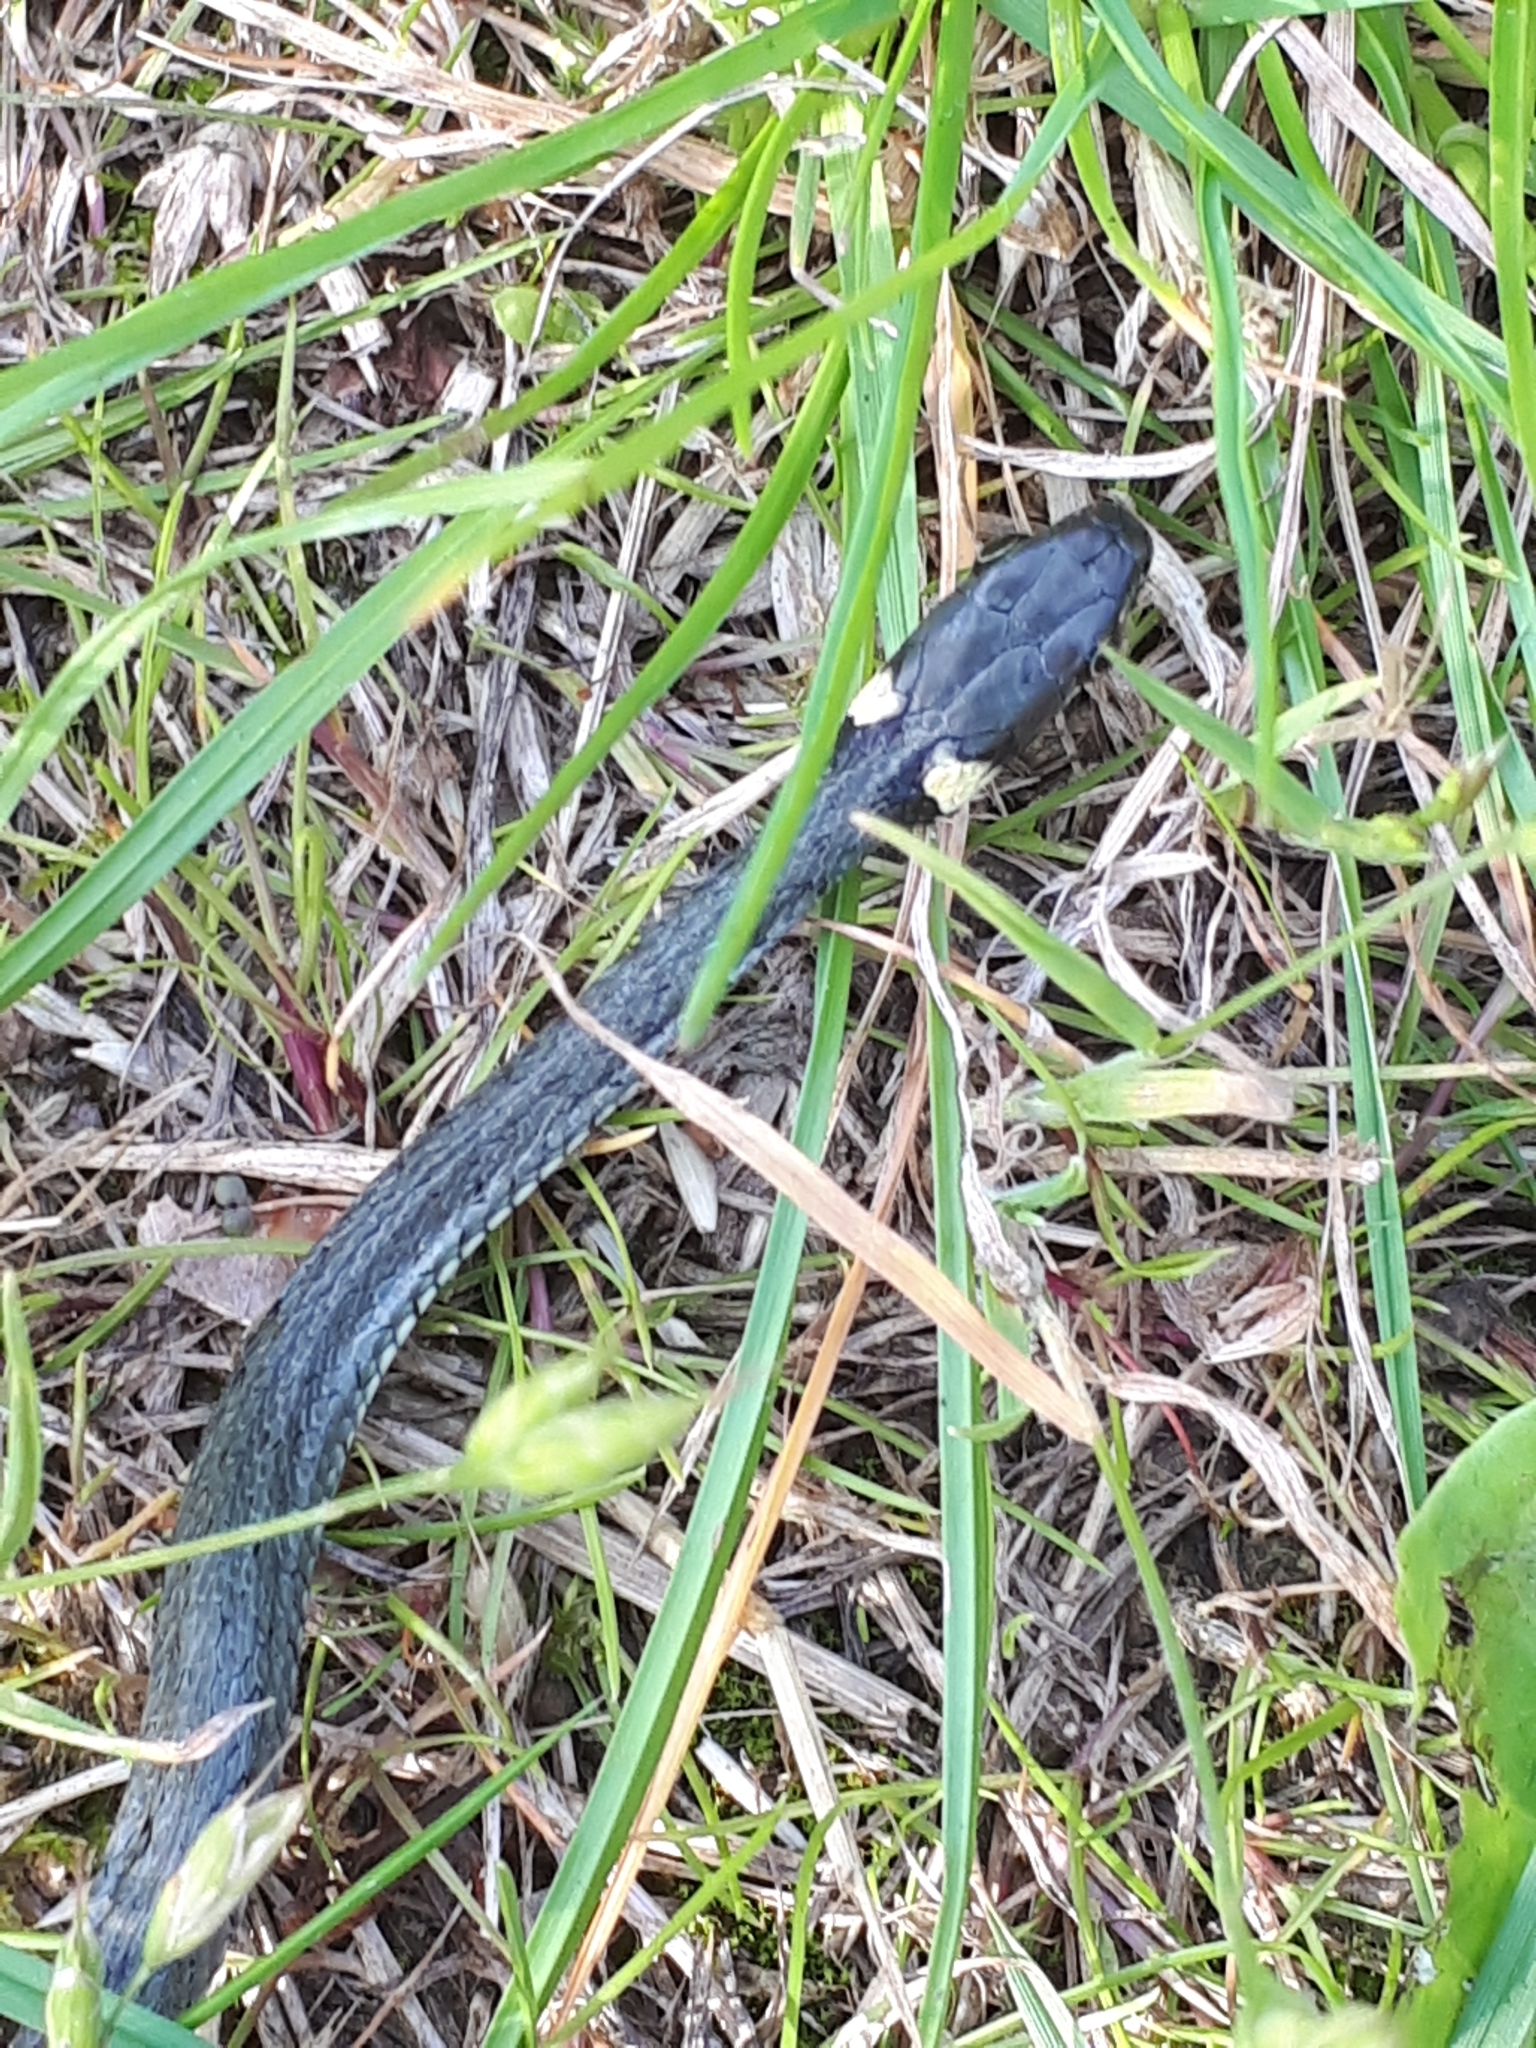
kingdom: Animalia
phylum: Chordata
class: Squamata
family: Colubridae
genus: Natrix
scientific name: Natrix natrix
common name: Grass snake
